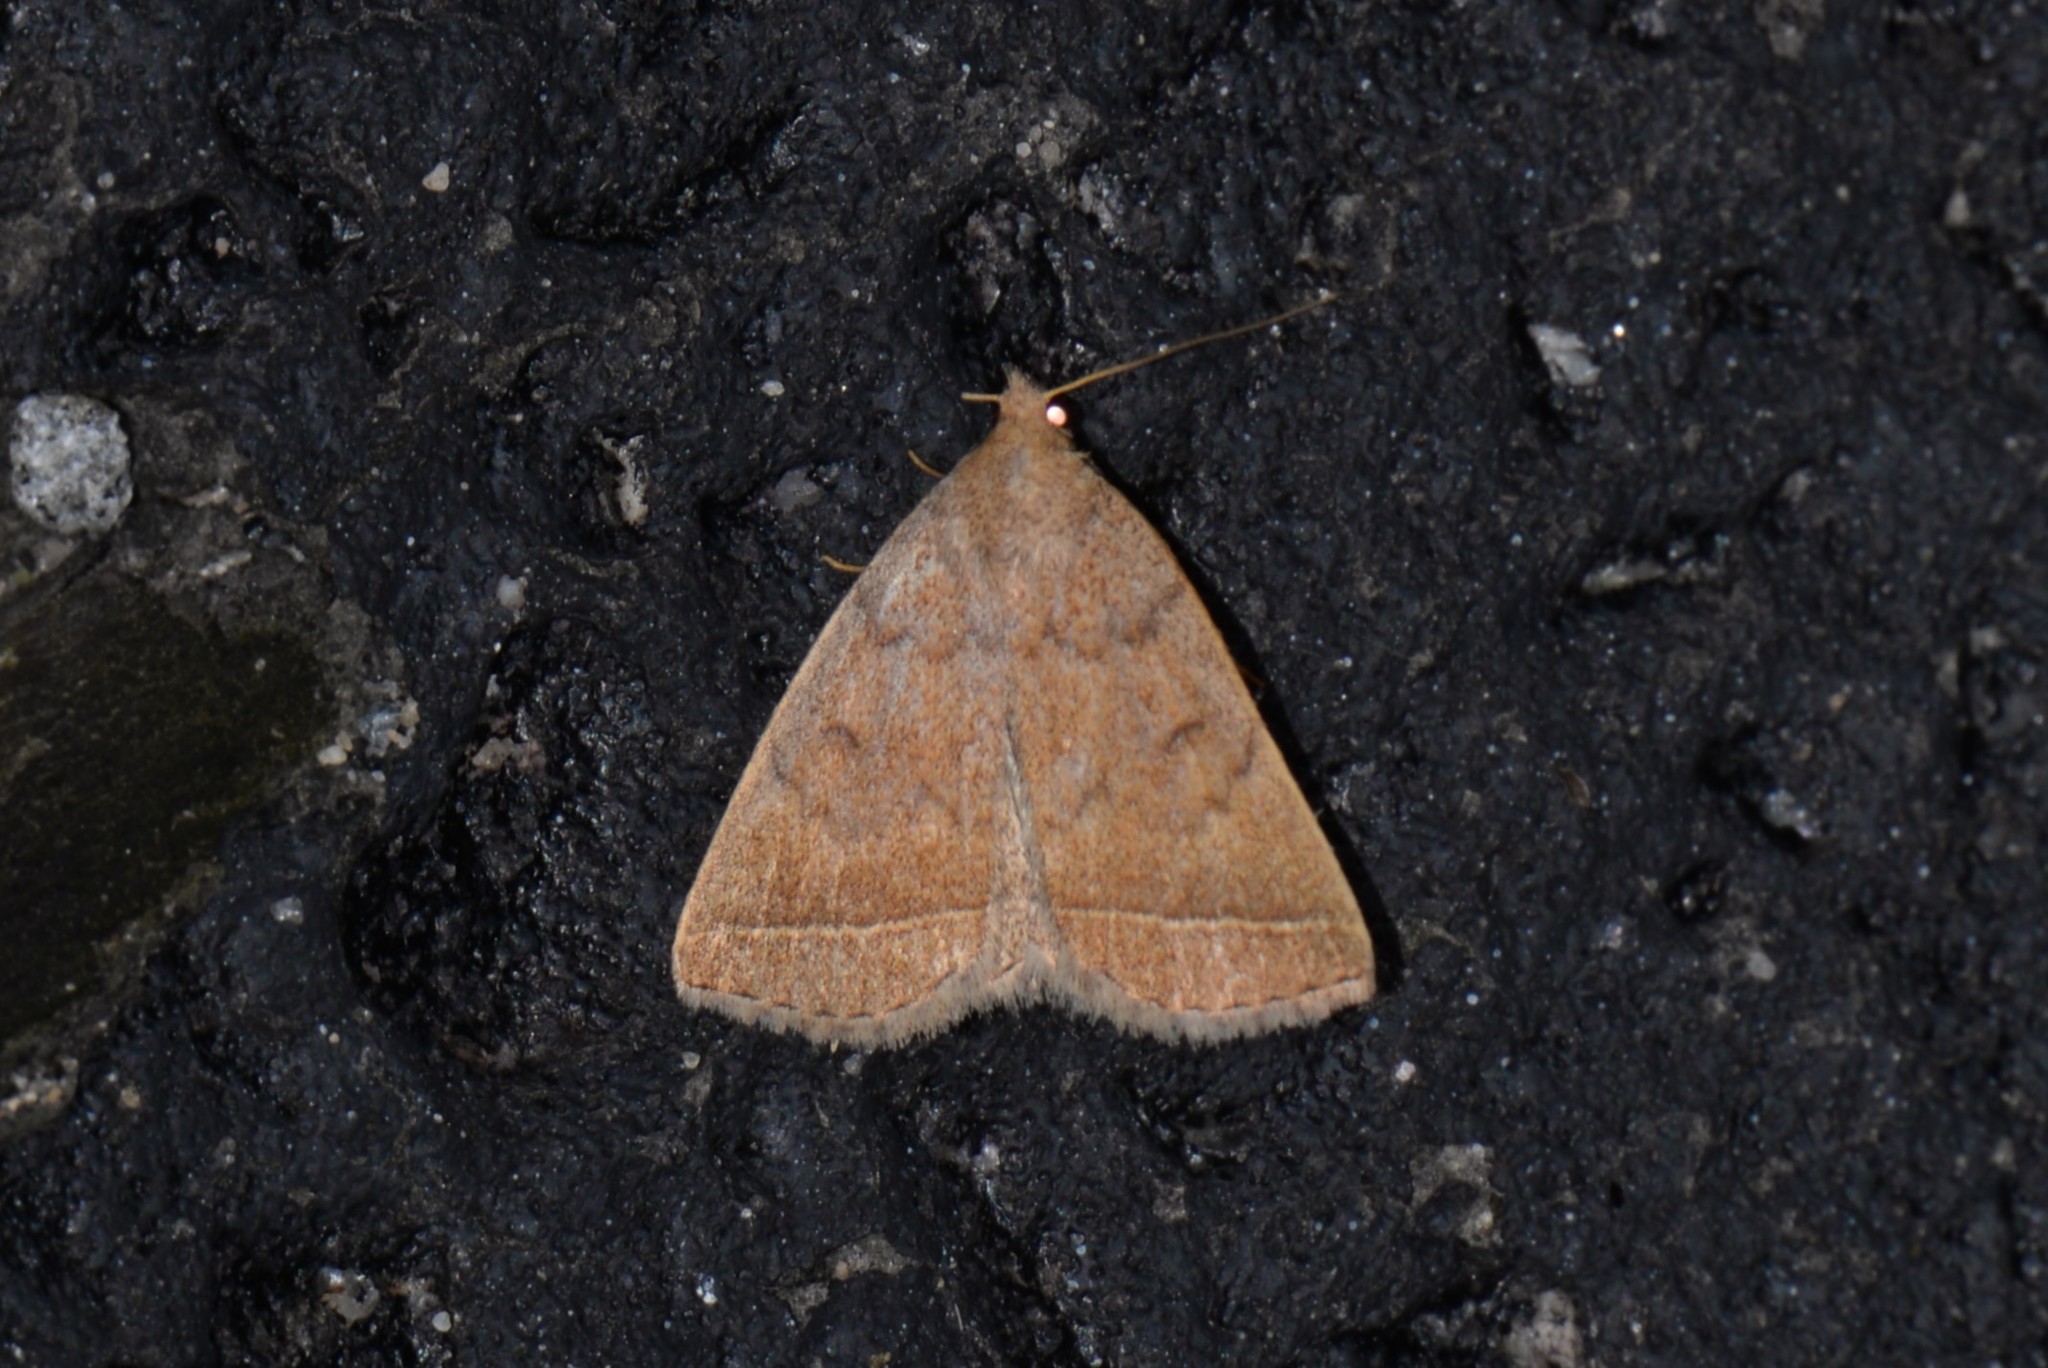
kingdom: Animalia
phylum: Arthropoda
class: Insecta
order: Lepidoptera
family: Erebidae
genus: Zanclognatha
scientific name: Zanclognatha jacchusalis
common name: Yellowish zanclognatha
